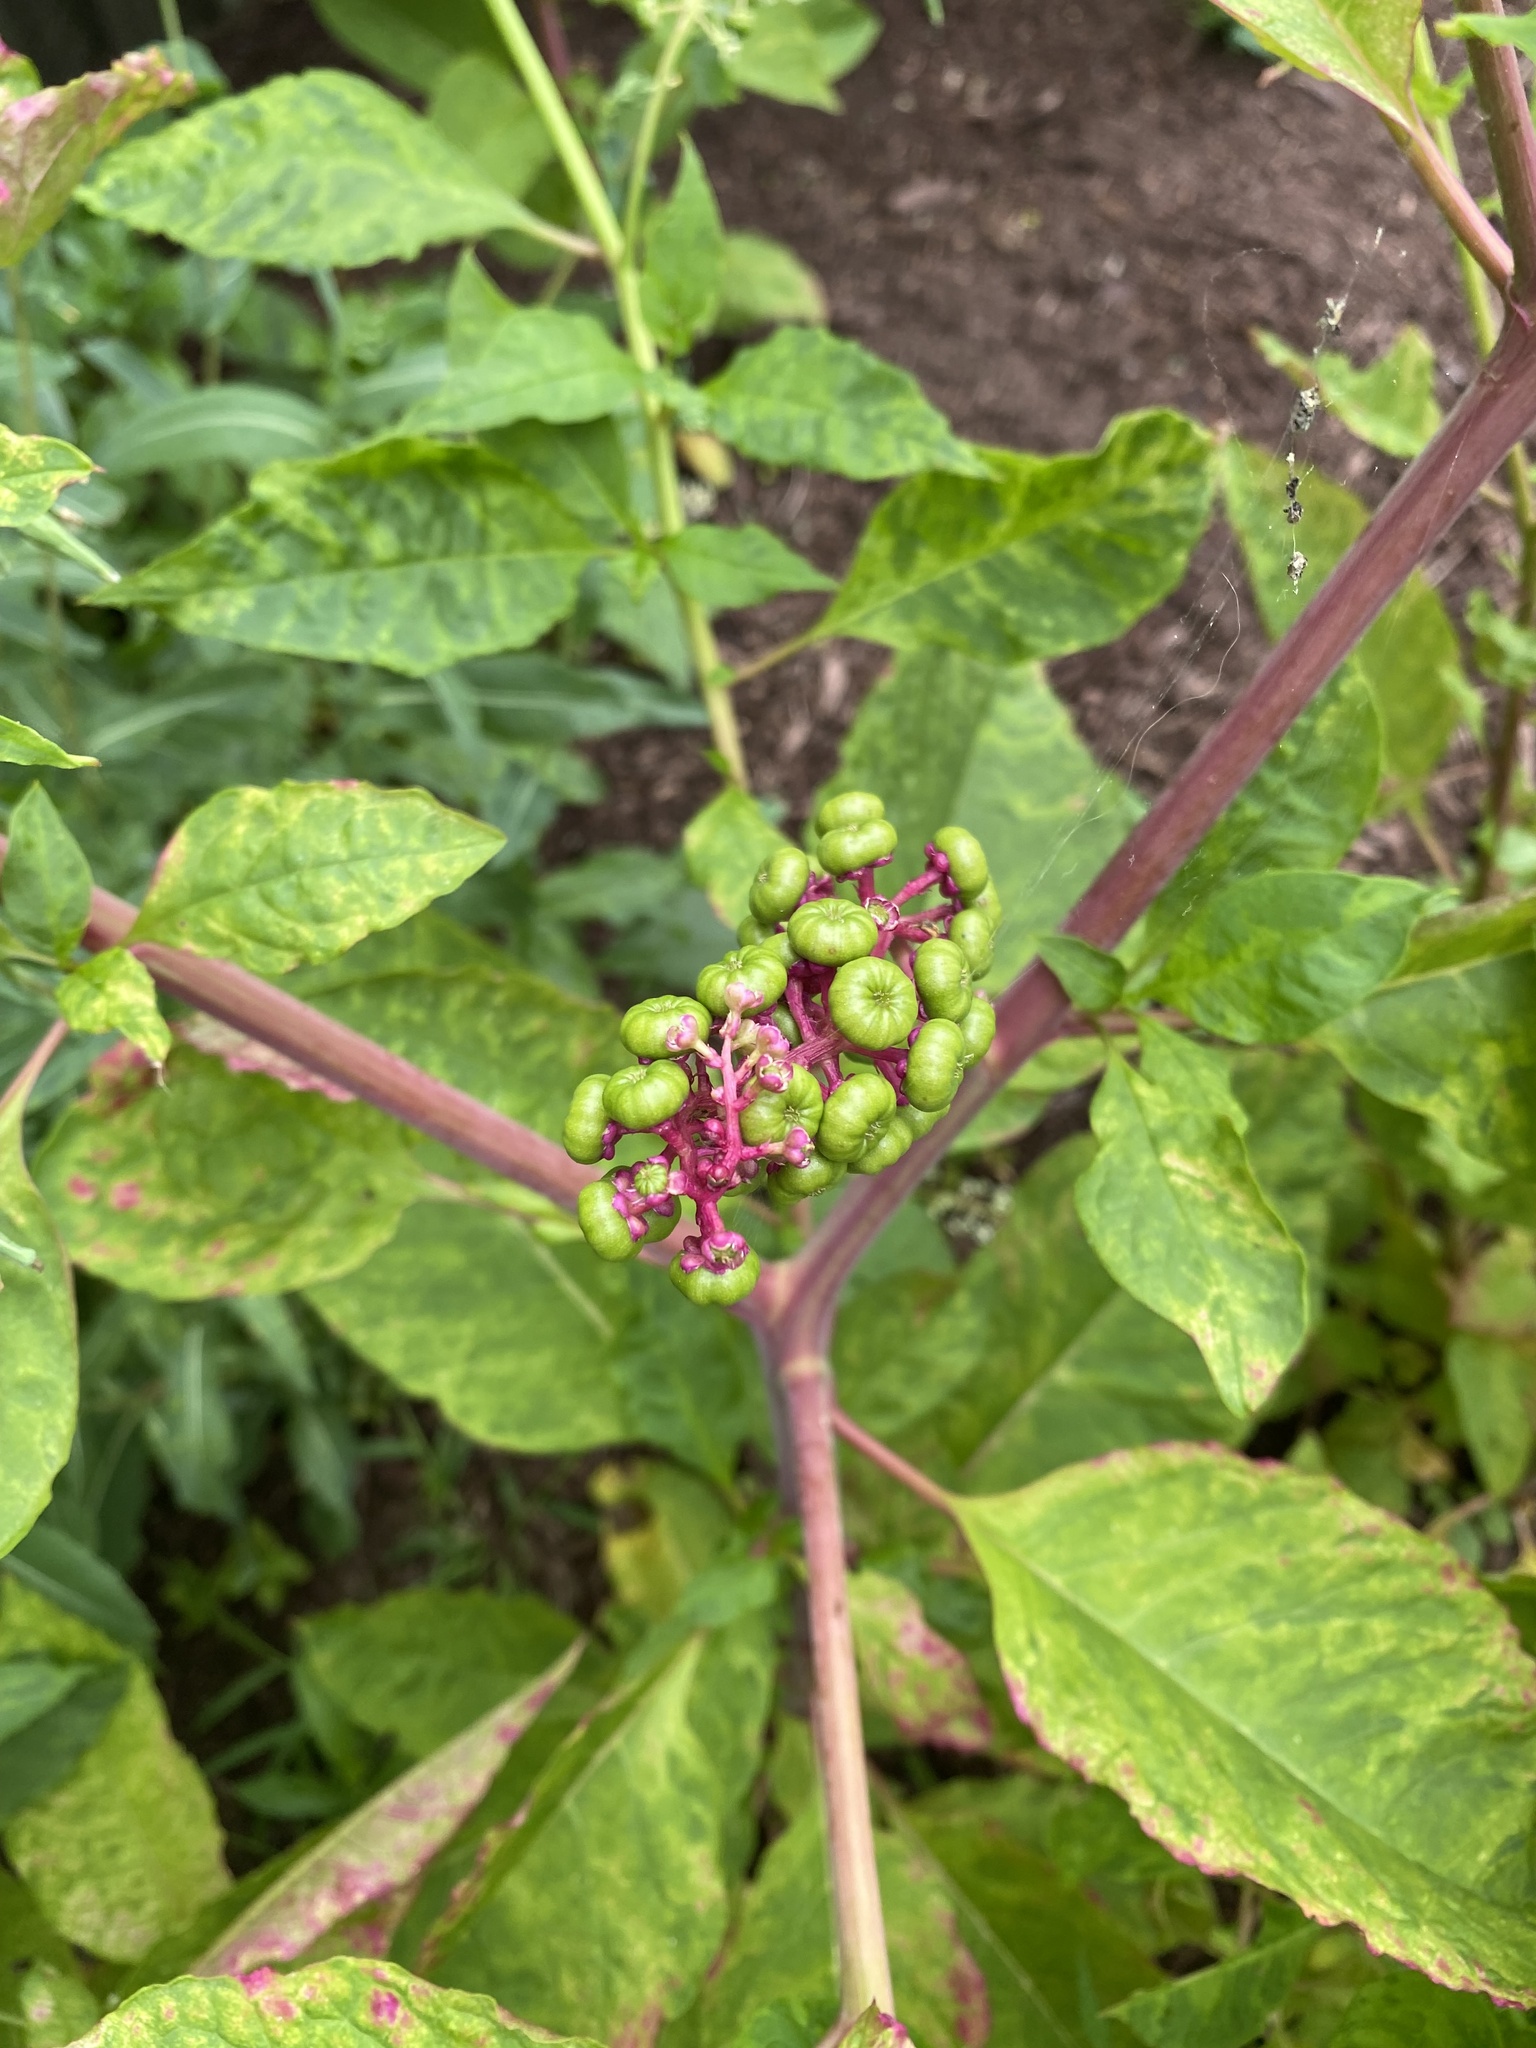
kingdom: Plantae
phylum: Tracheophyta
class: Magnoliopsida
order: Caryophyllales
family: Phytolaccaceae
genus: Phytolacca
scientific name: Phytolacca americana
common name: American pokeweed
